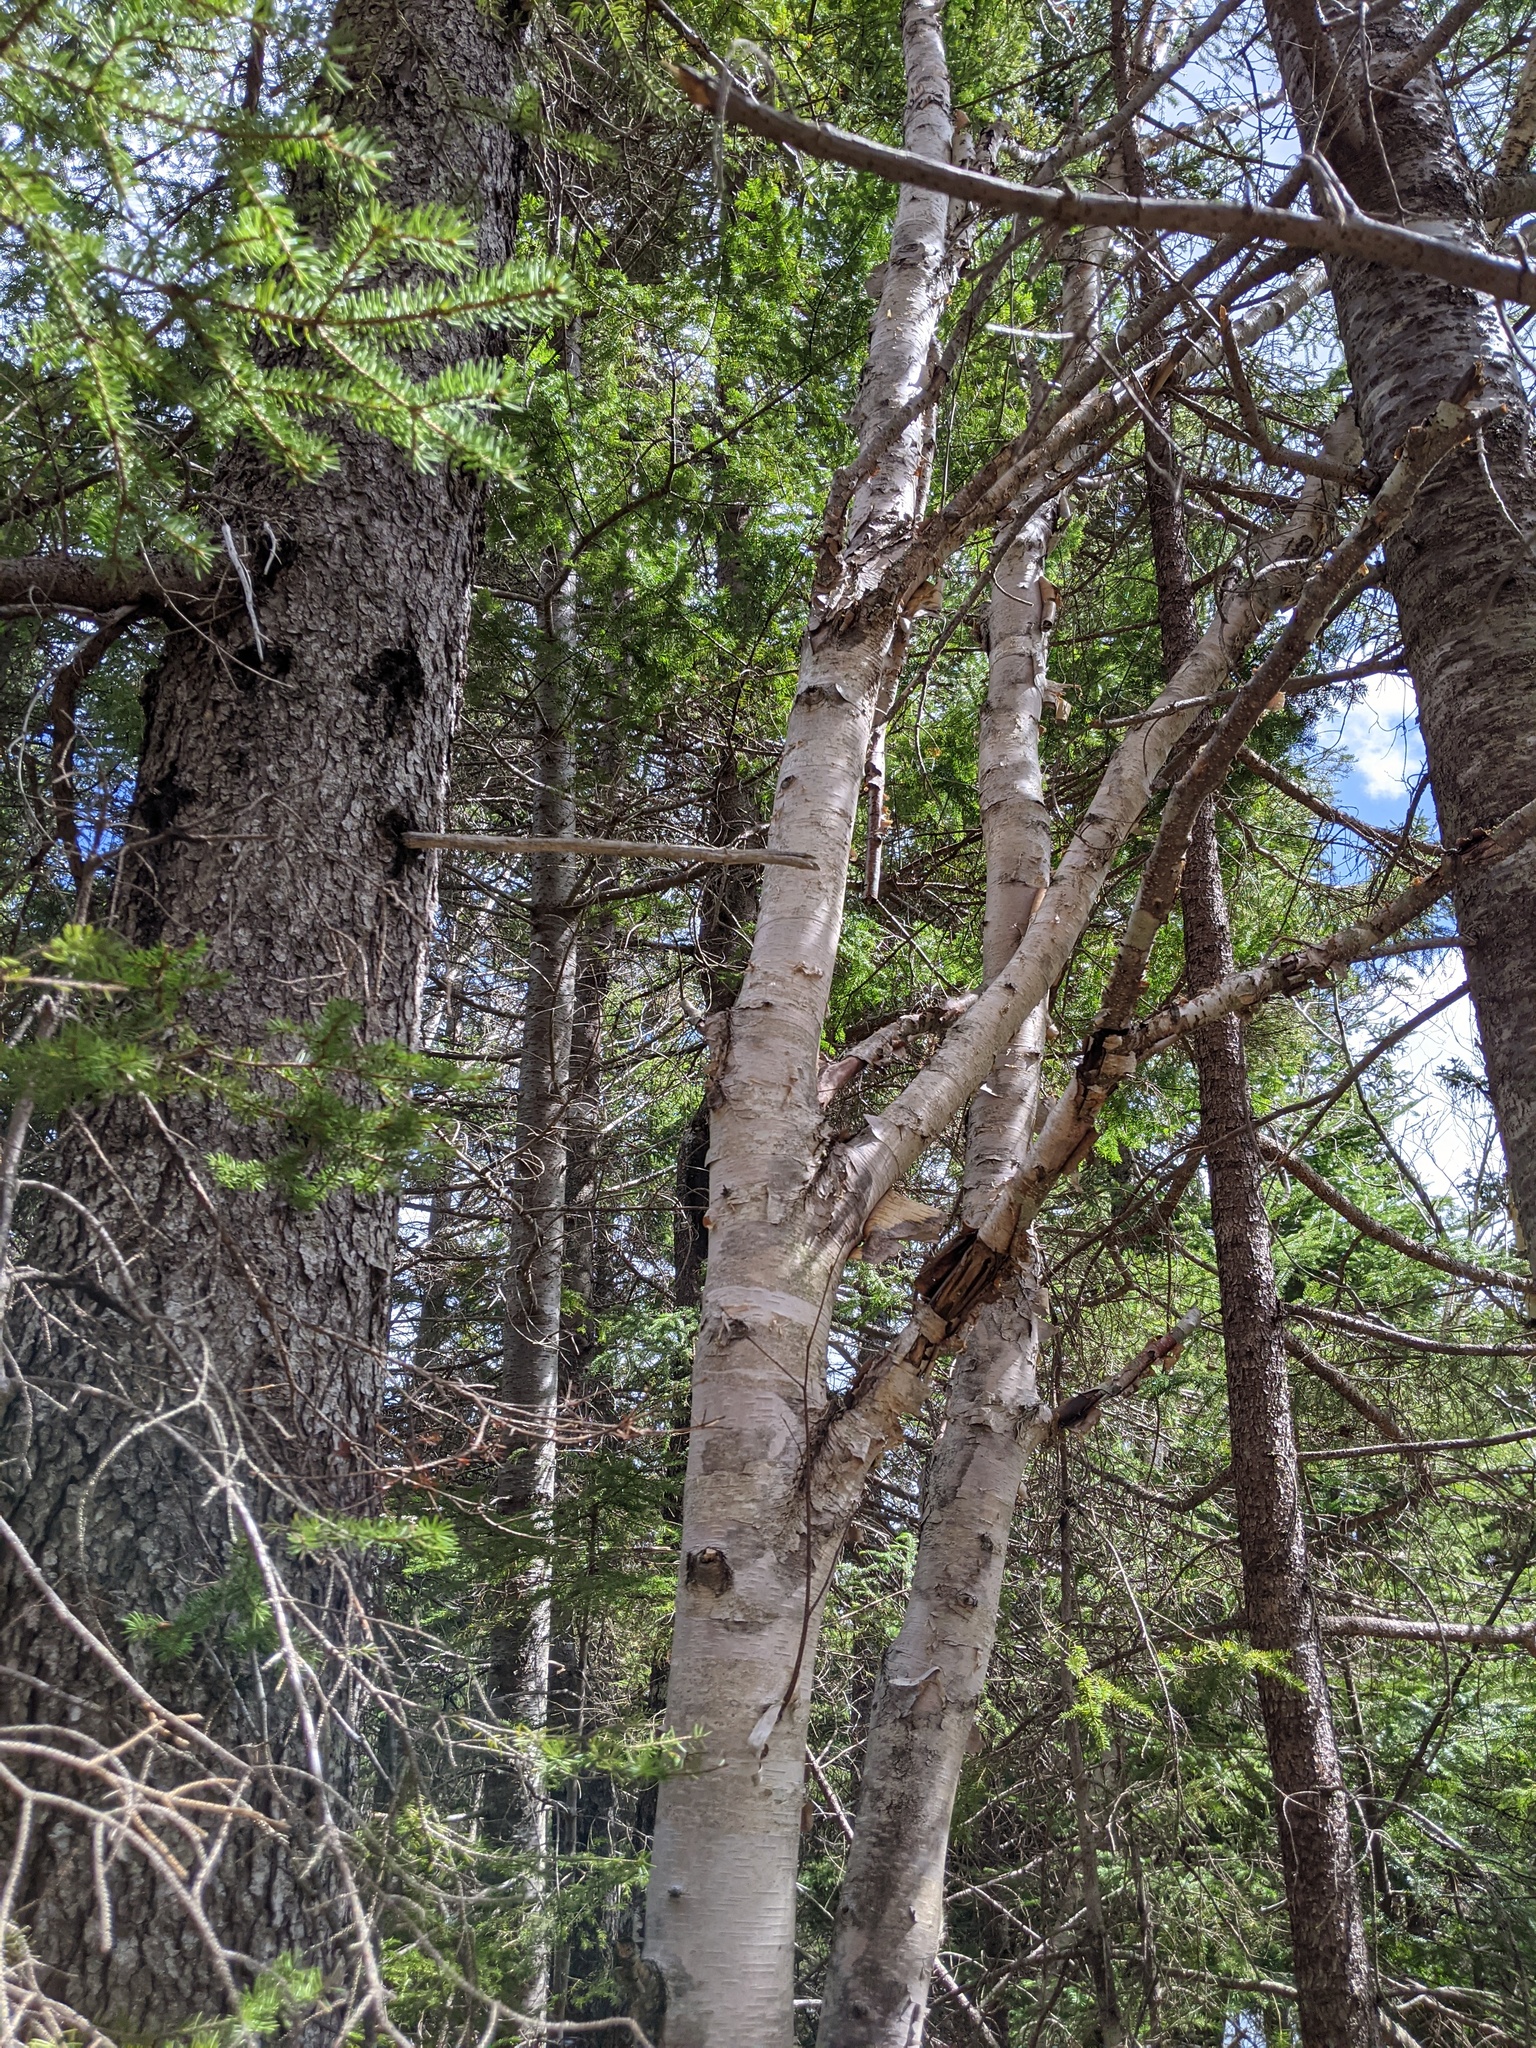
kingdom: Plantae
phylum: Tracheophyta
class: Magnoliopsida
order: Fagales
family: Betulaceae
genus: Betula
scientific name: Betula papyrifera
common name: Paper birch
